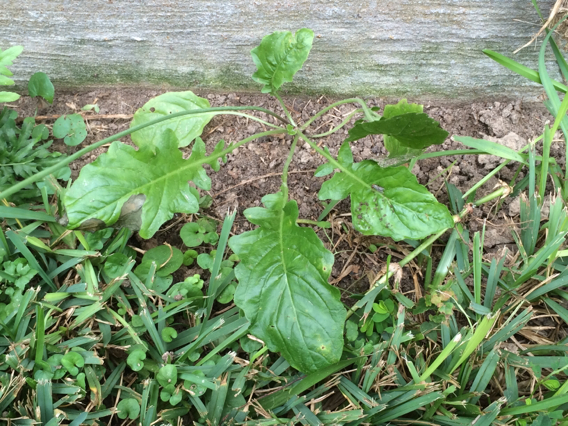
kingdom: Plantae
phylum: Tracheophyta
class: Magnoliopsida
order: Asterales
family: Asteraceae
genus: Youngia
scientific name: Youngia japonica
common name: Oriental false hawksbeard
